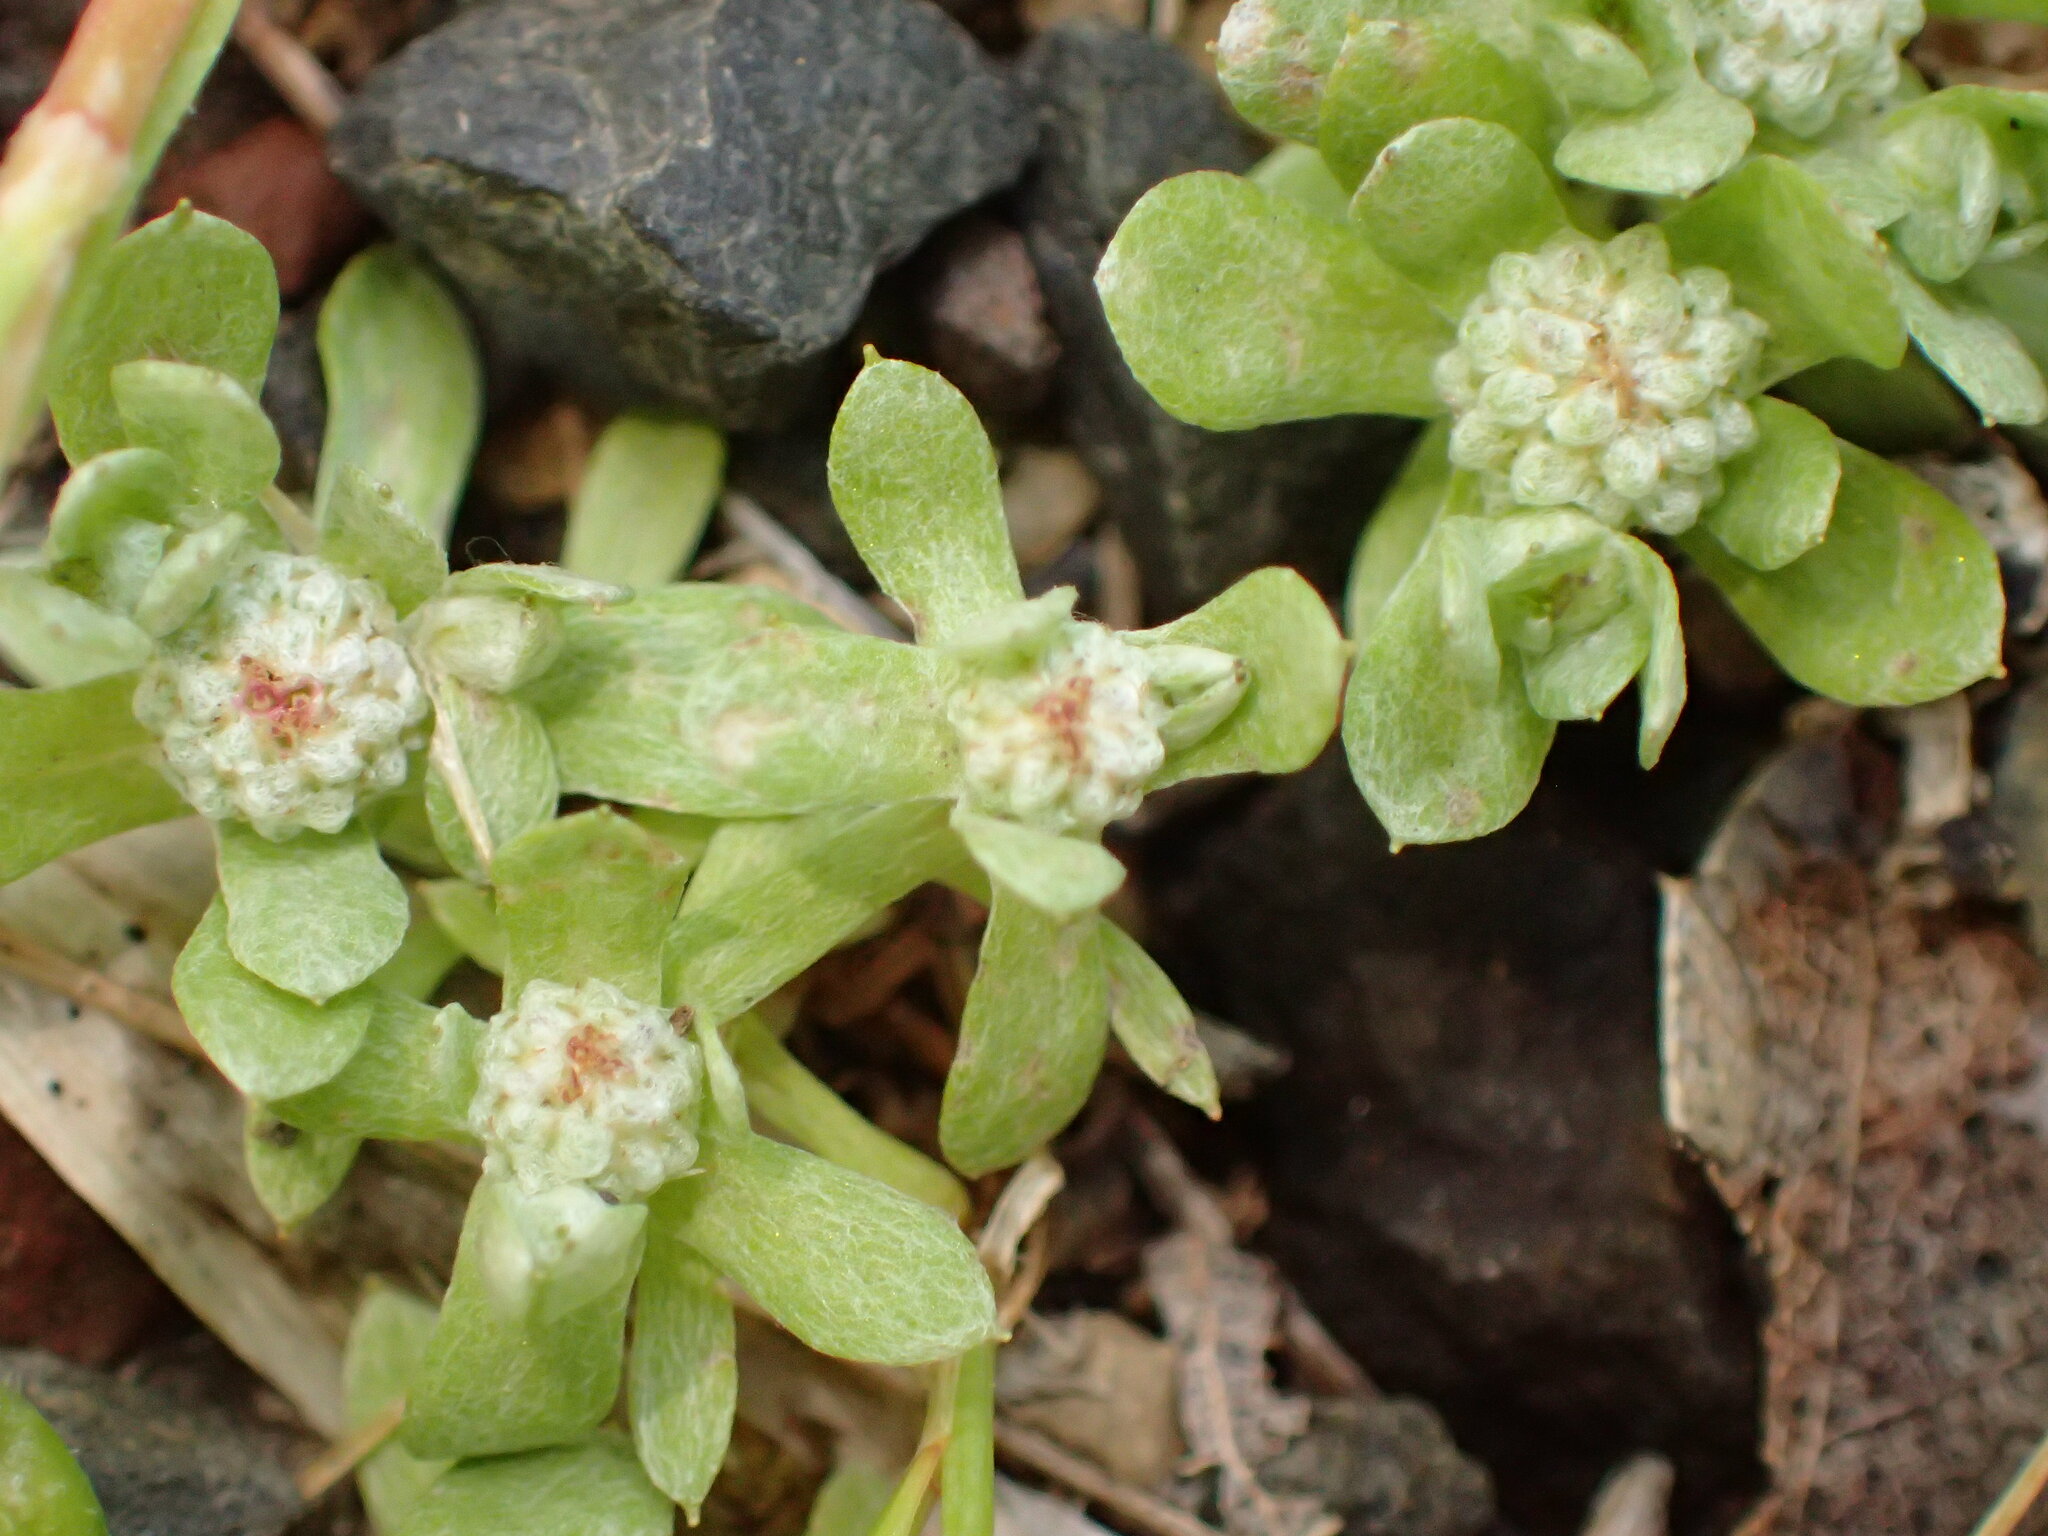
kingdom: Plantae
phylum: Tracheophyta
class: Magnoliopsida
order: Asterales
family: Asteraceae
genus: Psilocarphus
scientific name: Psilocarphus tenellus
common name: Slender woolly-marbles
